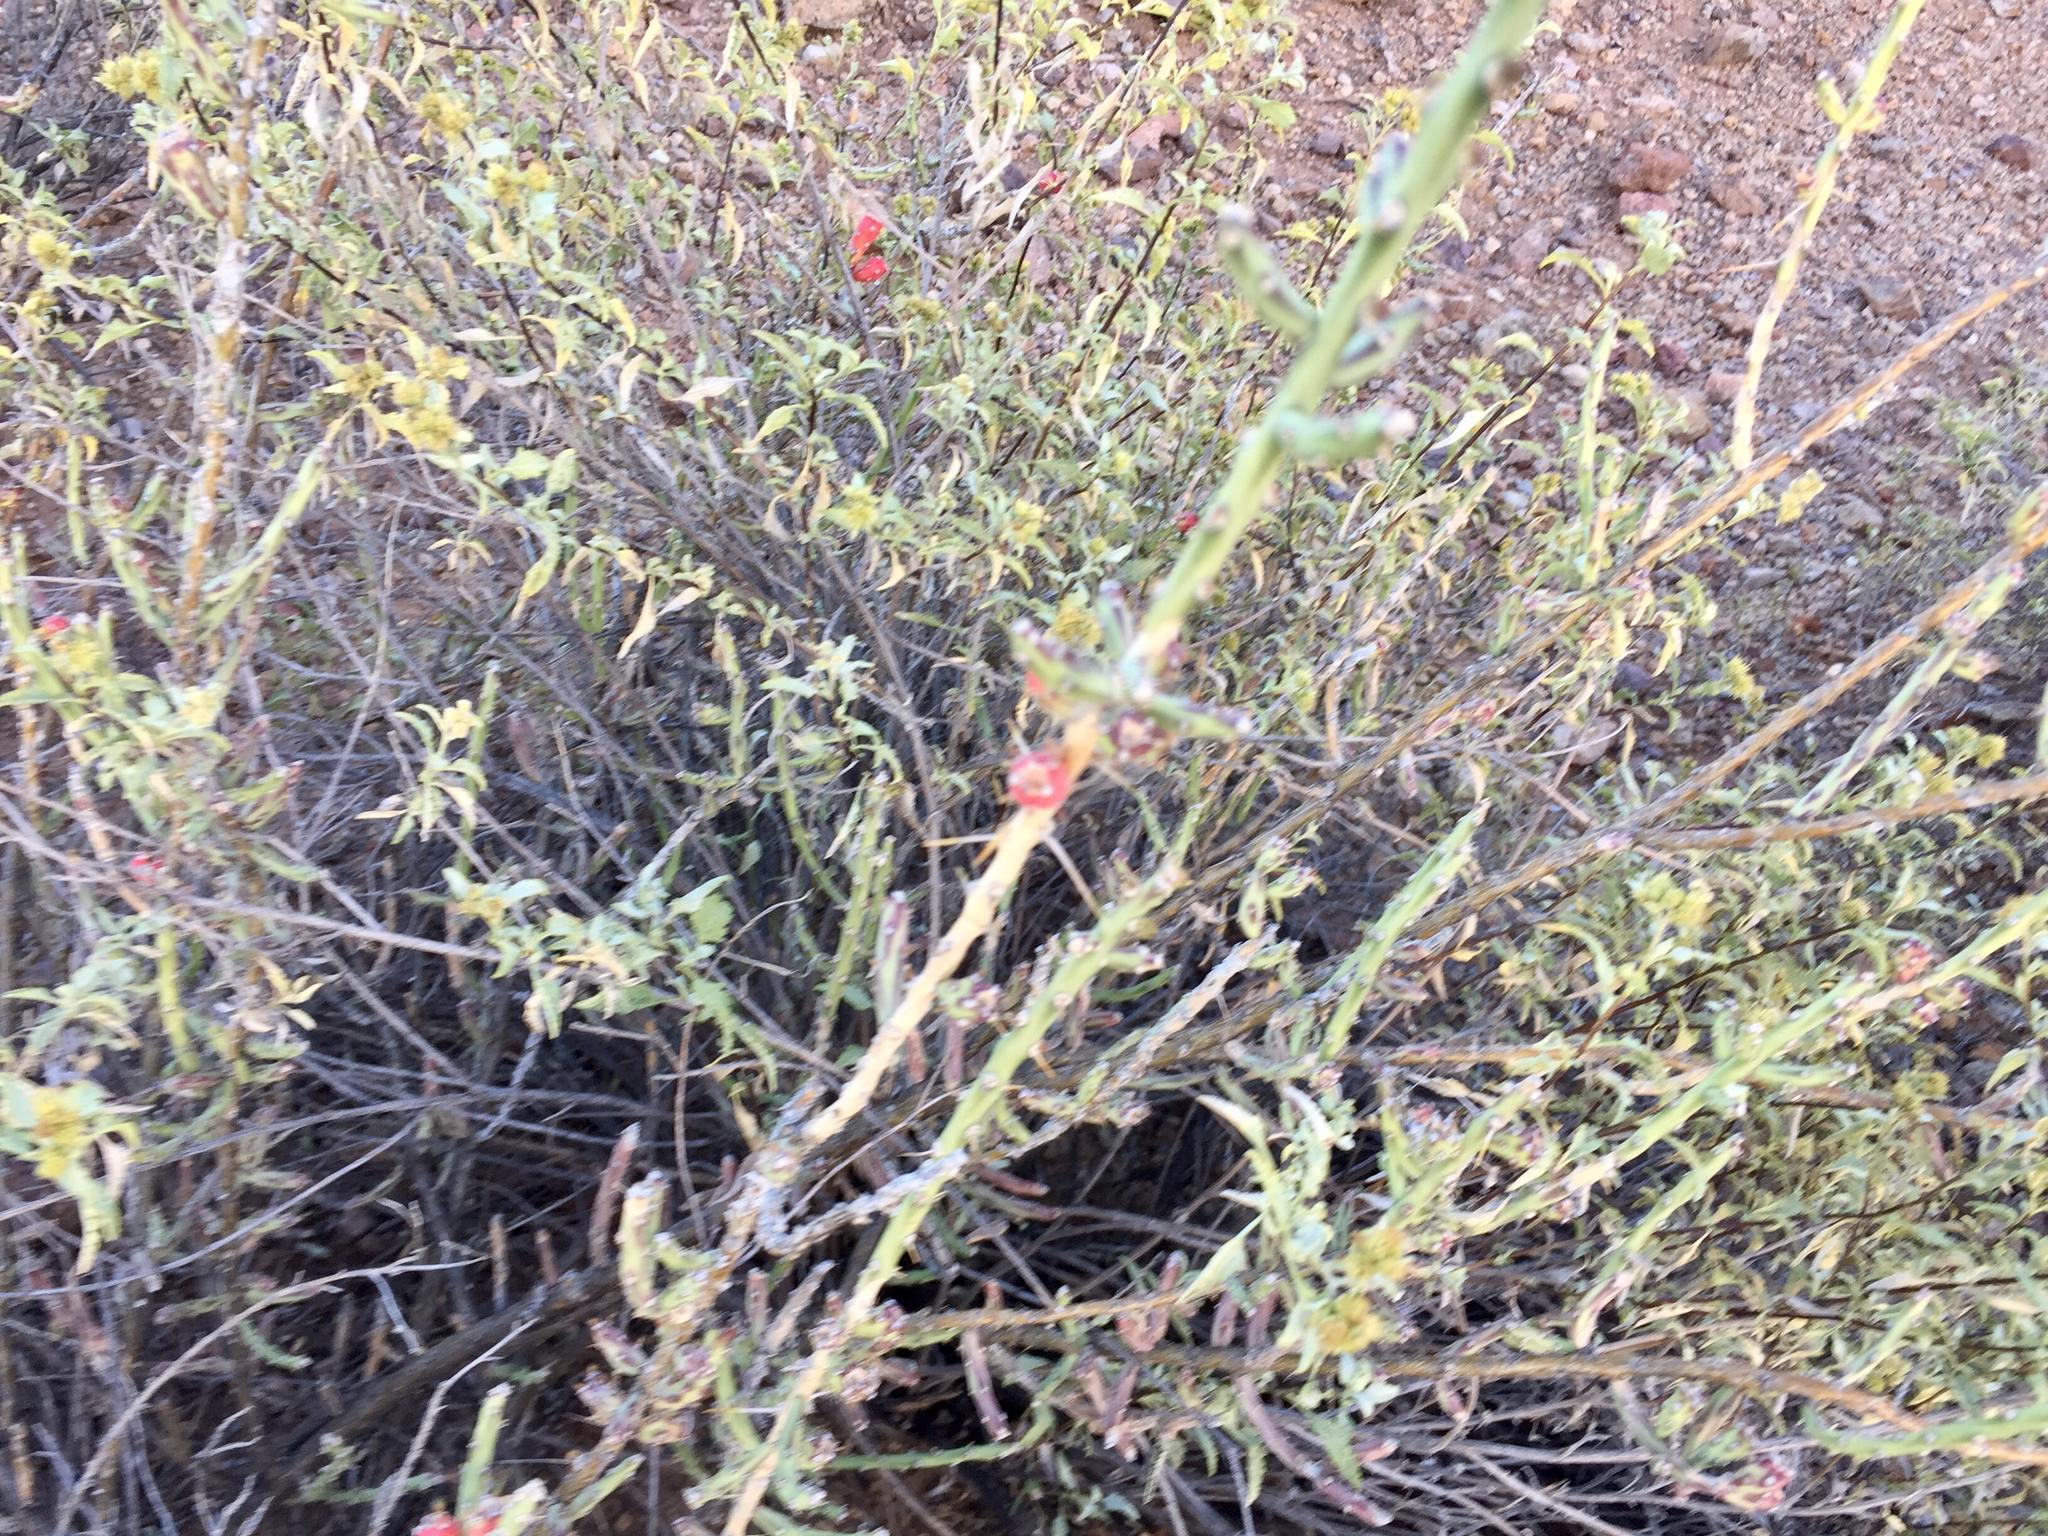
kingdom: Plantae
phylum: Tracheophyta
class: Magnoliopsida
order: Caryophyllales
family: Cactaceae
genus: Cylindropuntia
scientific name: Cylindropuntia leptocaulis
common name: Christmas cactus
